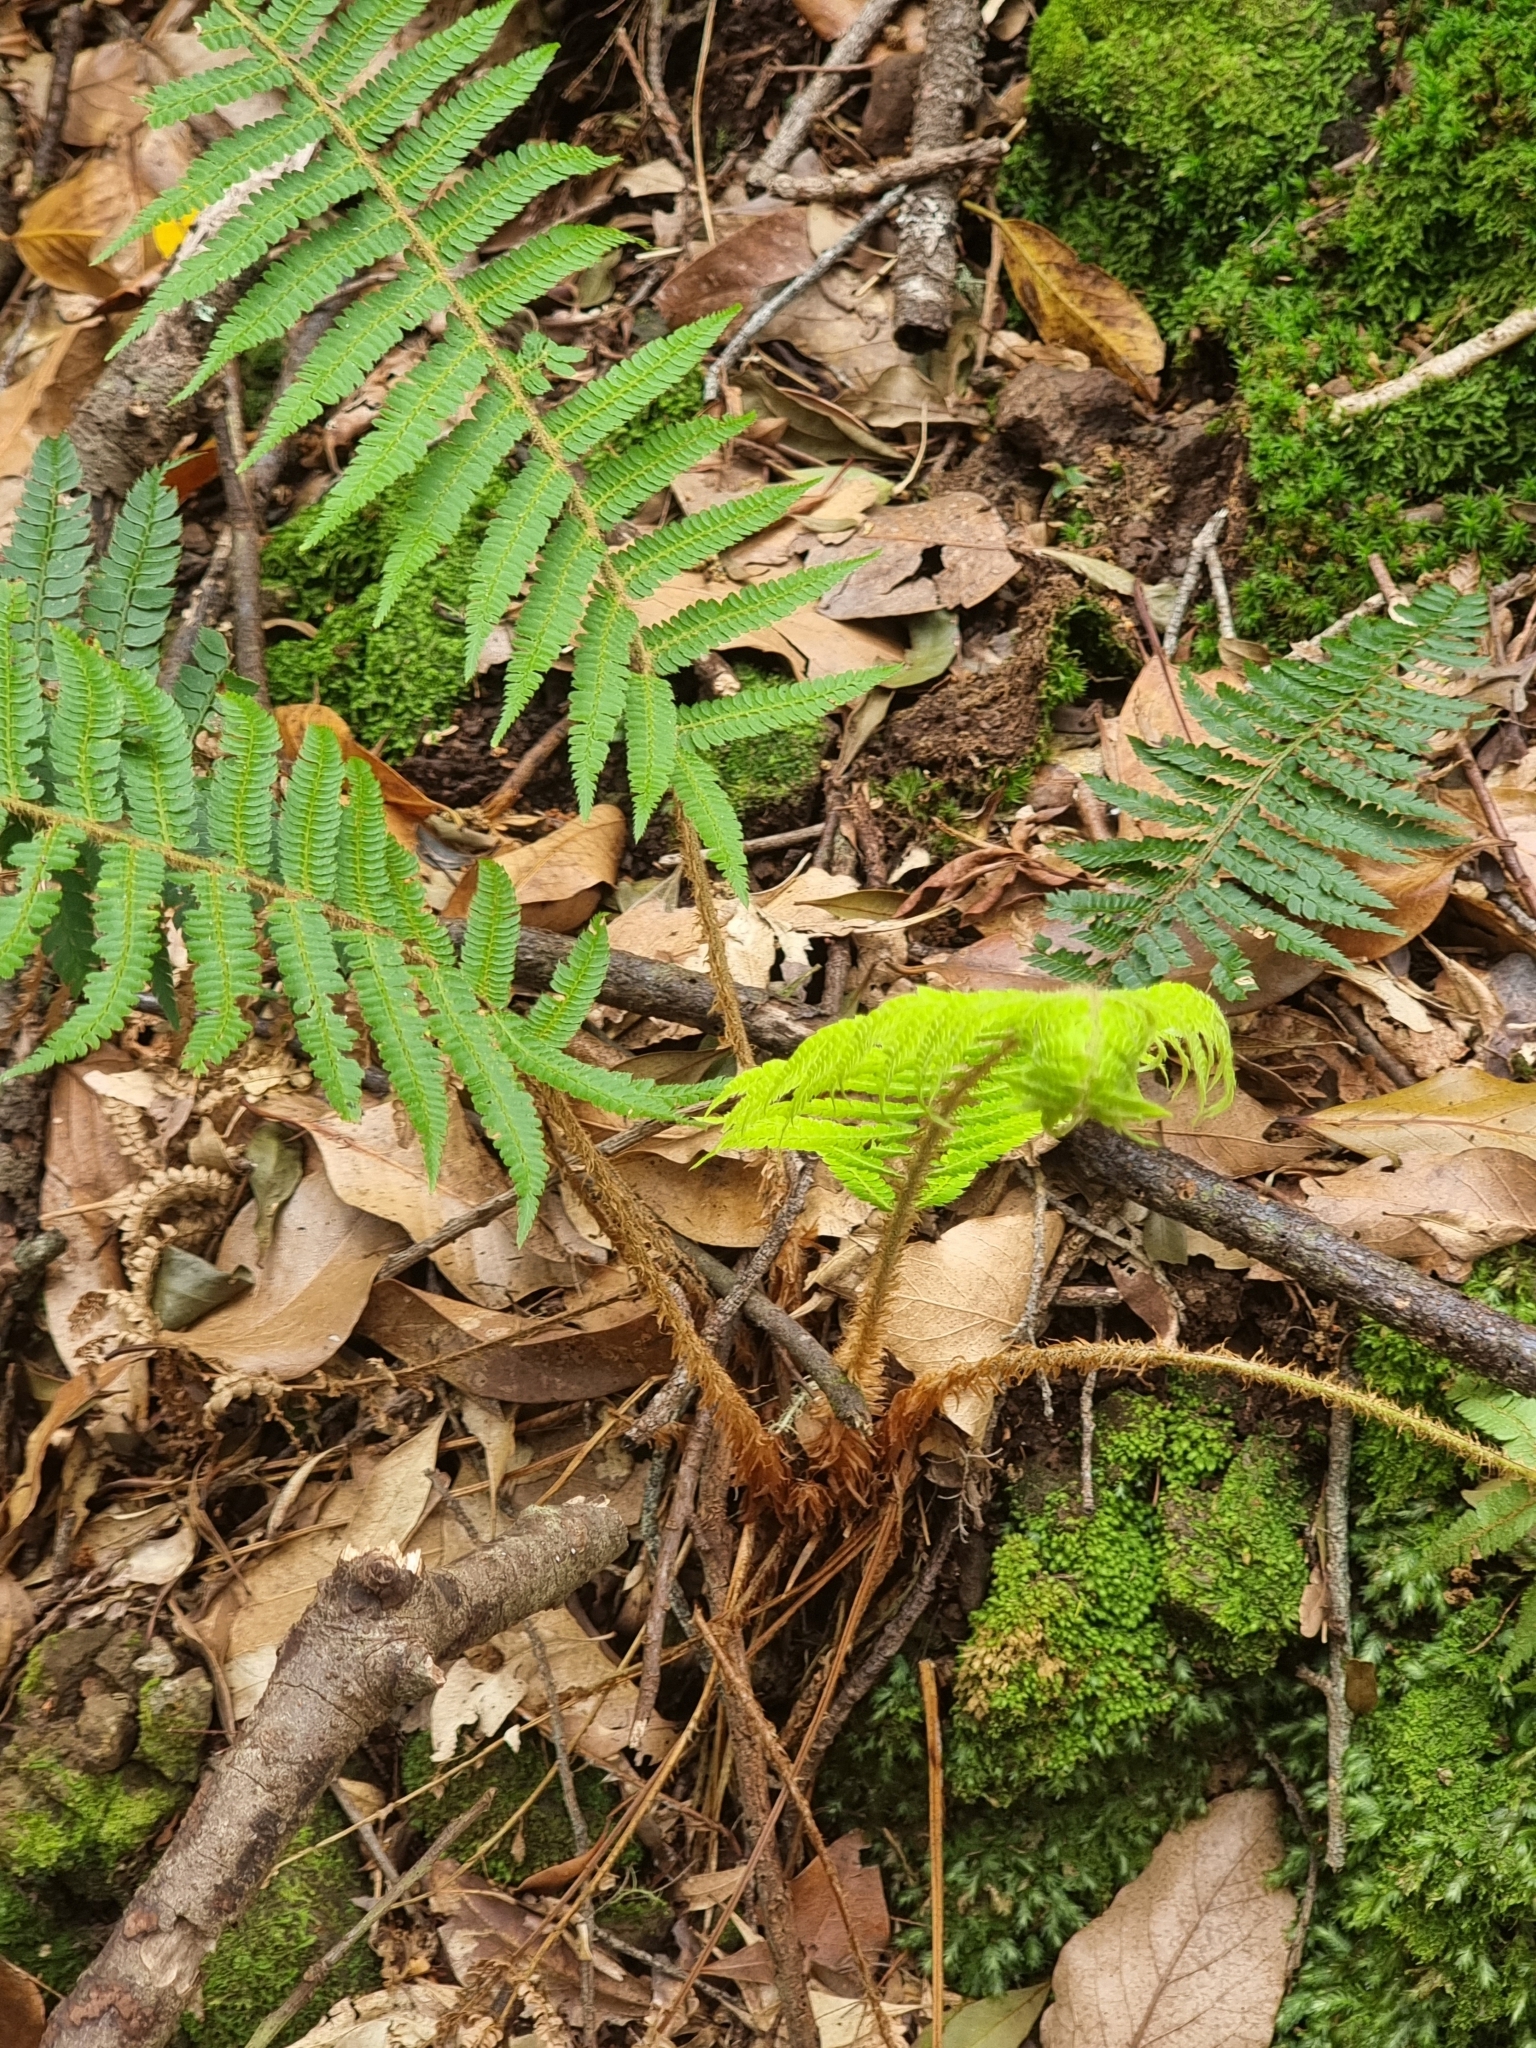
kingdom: Plantae
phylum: Tracheophyta
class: Polypodiopsida
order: Polypodiales
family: Dryopteridaceae
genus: Polystichum
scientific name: Polystichum setiferum
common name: Soft shield-fern
